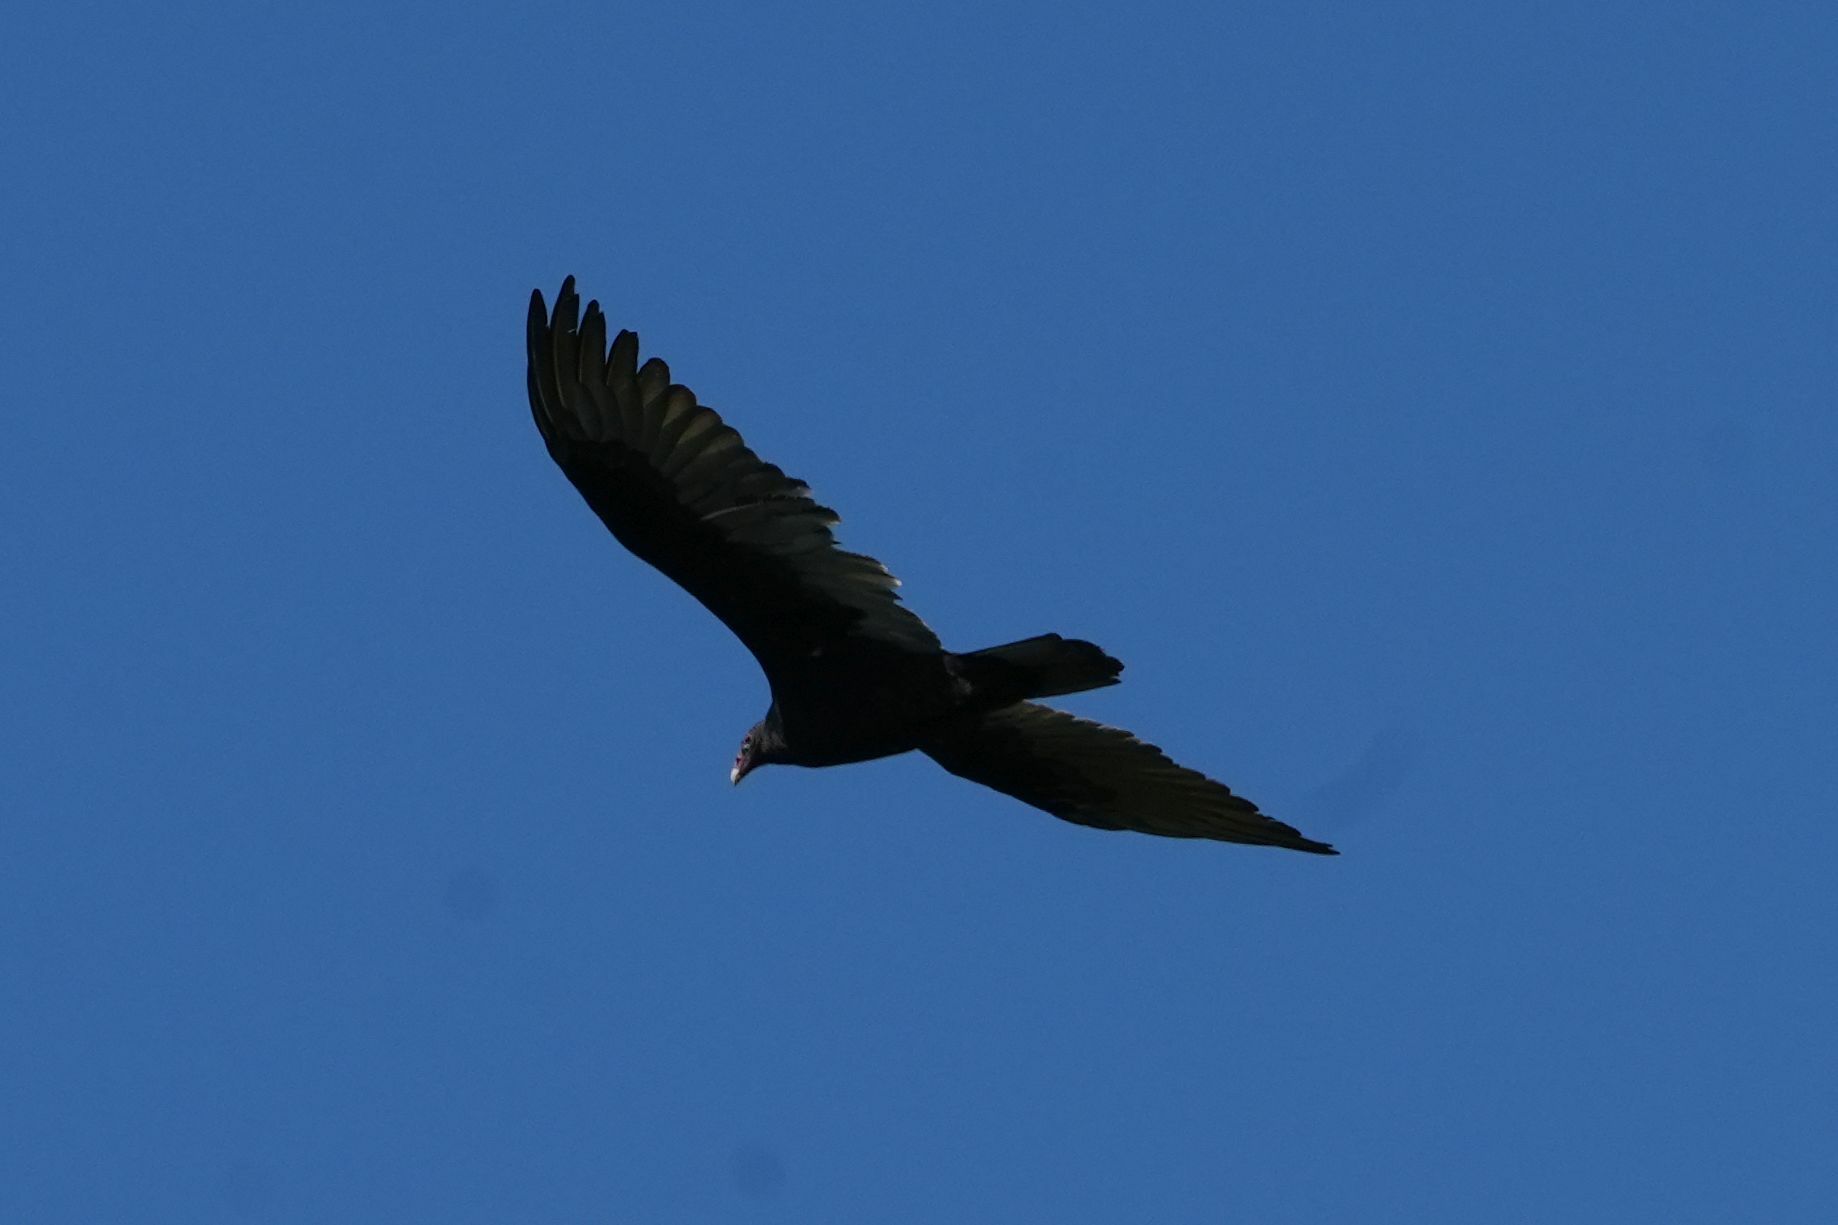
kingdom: Animalia
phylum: Chordata
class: Aves
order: Accipitriformes
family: Cathartidae
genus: Cathartes
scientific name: Cathartes aura
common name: Turkey vulture
